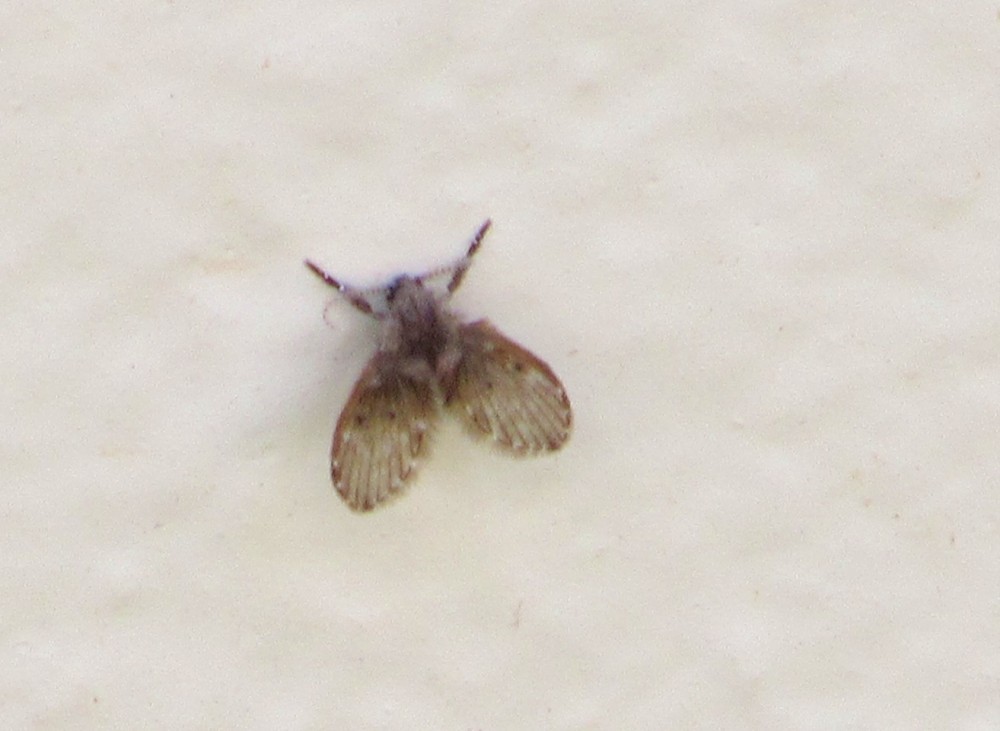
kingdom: Animalia
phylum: Arthropoda
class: Insecta
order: Diptera
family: Psychodidae
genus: Clogmia
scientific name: Clogmia albipunctatus
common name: White-spotted moth fly
